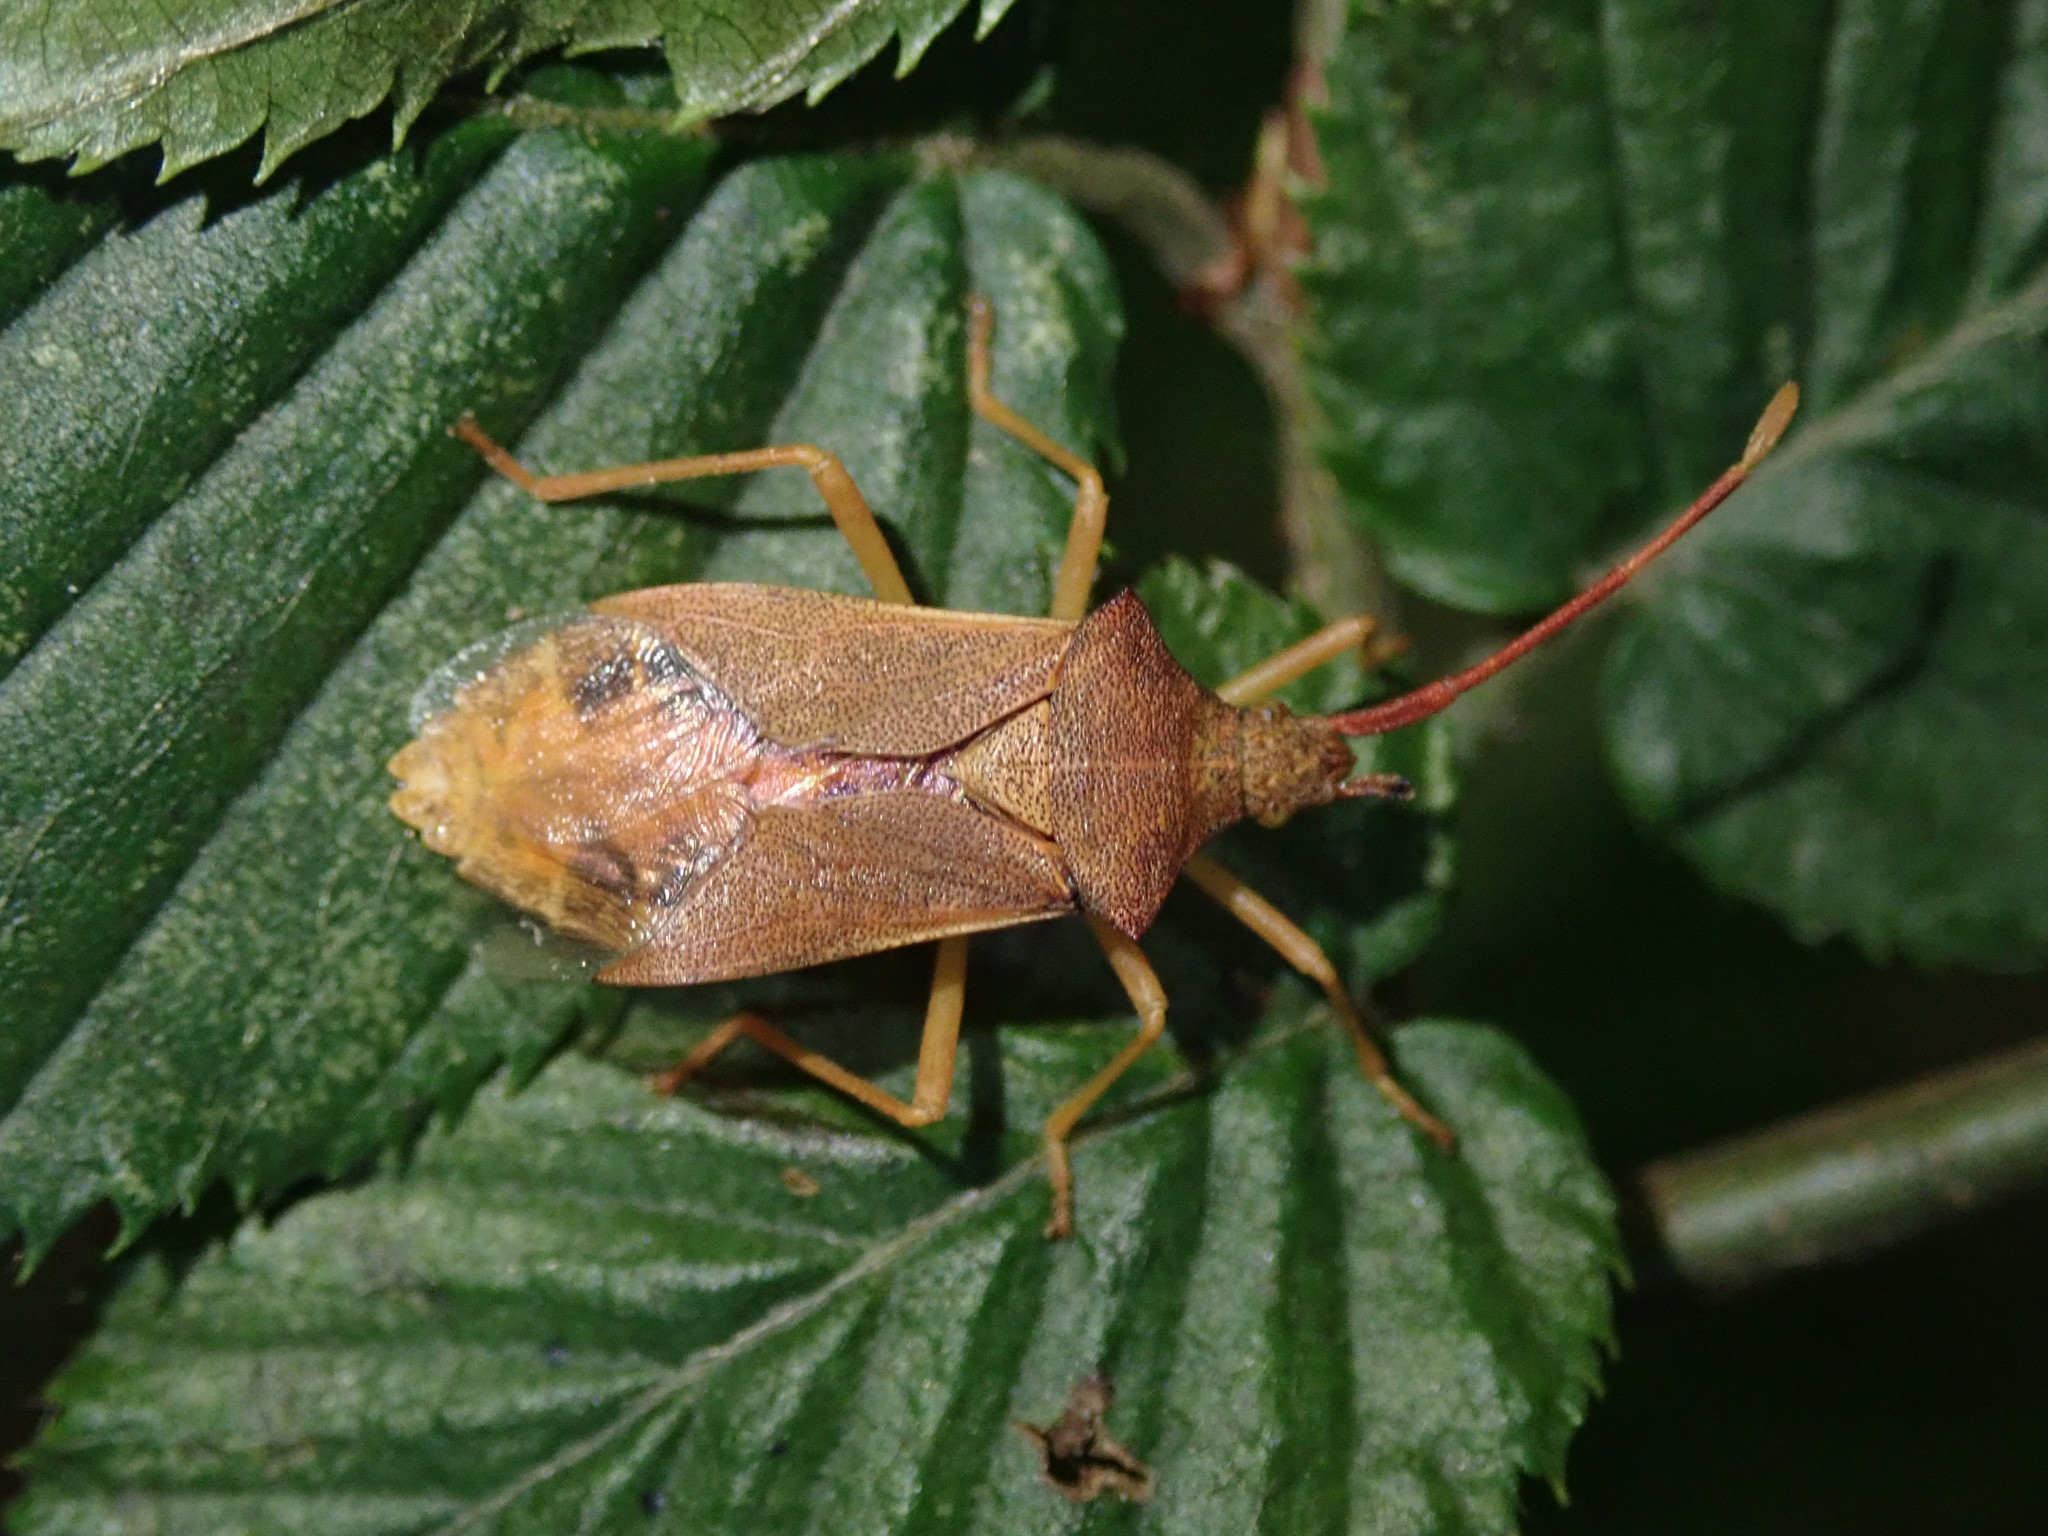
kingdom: Animalia
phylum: Arthropoda
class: Insecta
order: Hemiptera
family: Coreidae
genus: Gonocerus
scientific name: Gonocerus acuteangulatus
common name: Box bug
